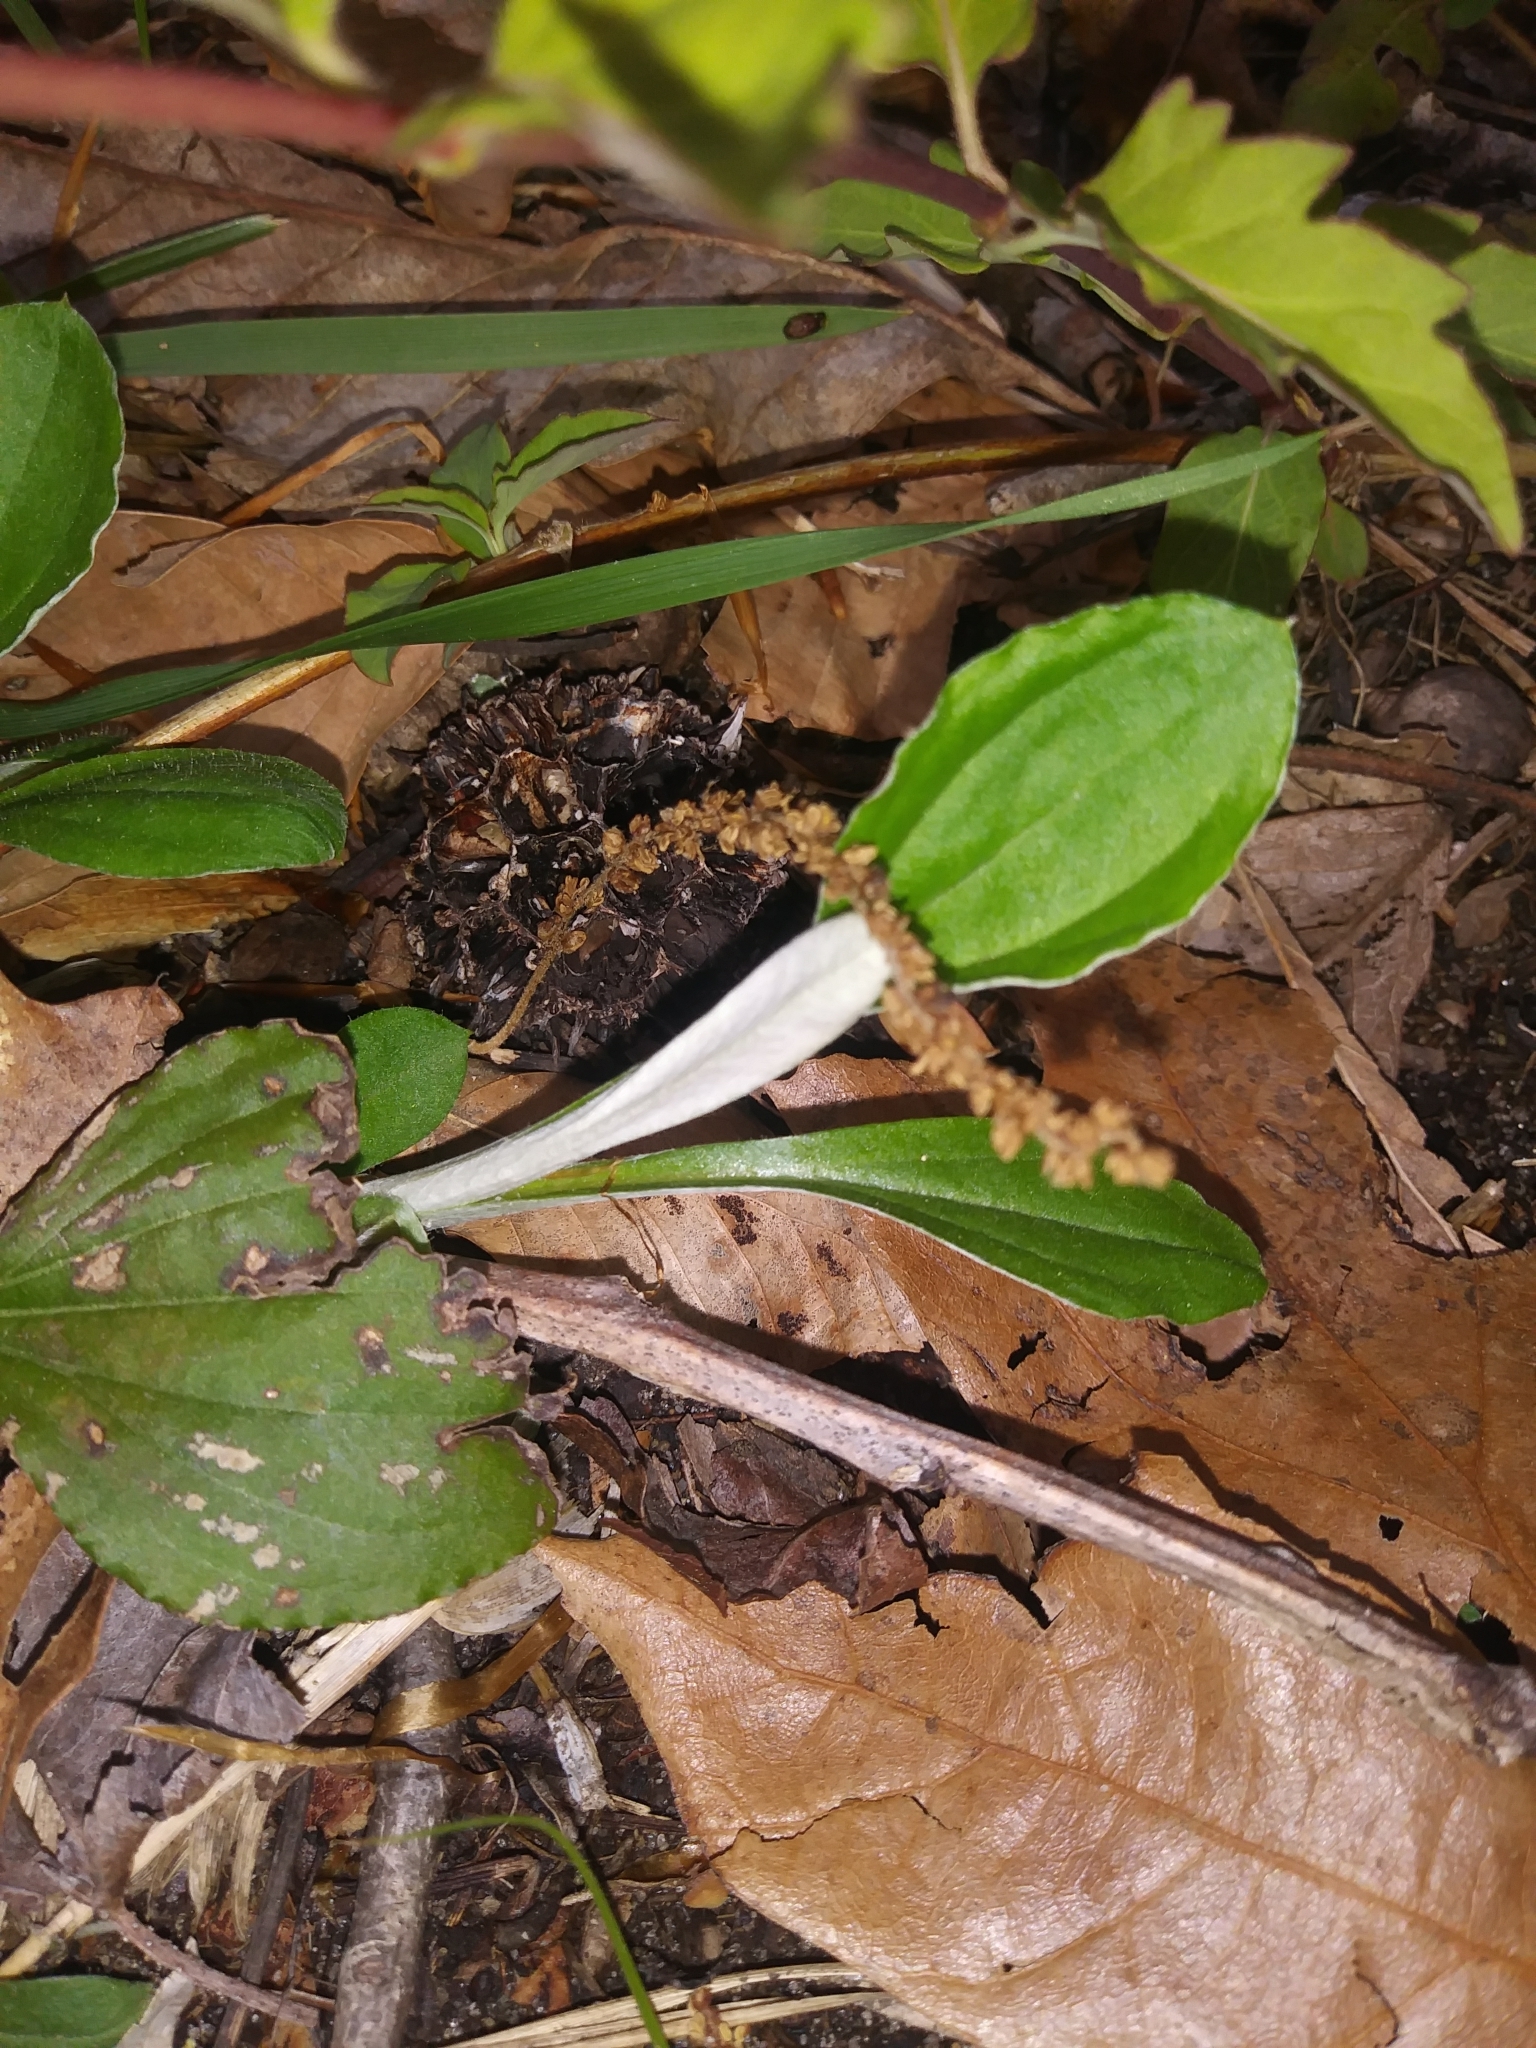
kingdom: Plantae
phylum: Tracheophyta
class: Magnoliopsida
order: Asterales
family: Asteraceae
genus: Antennaria
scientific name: Antennaria parlinii
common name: Parlin's pussytoes
